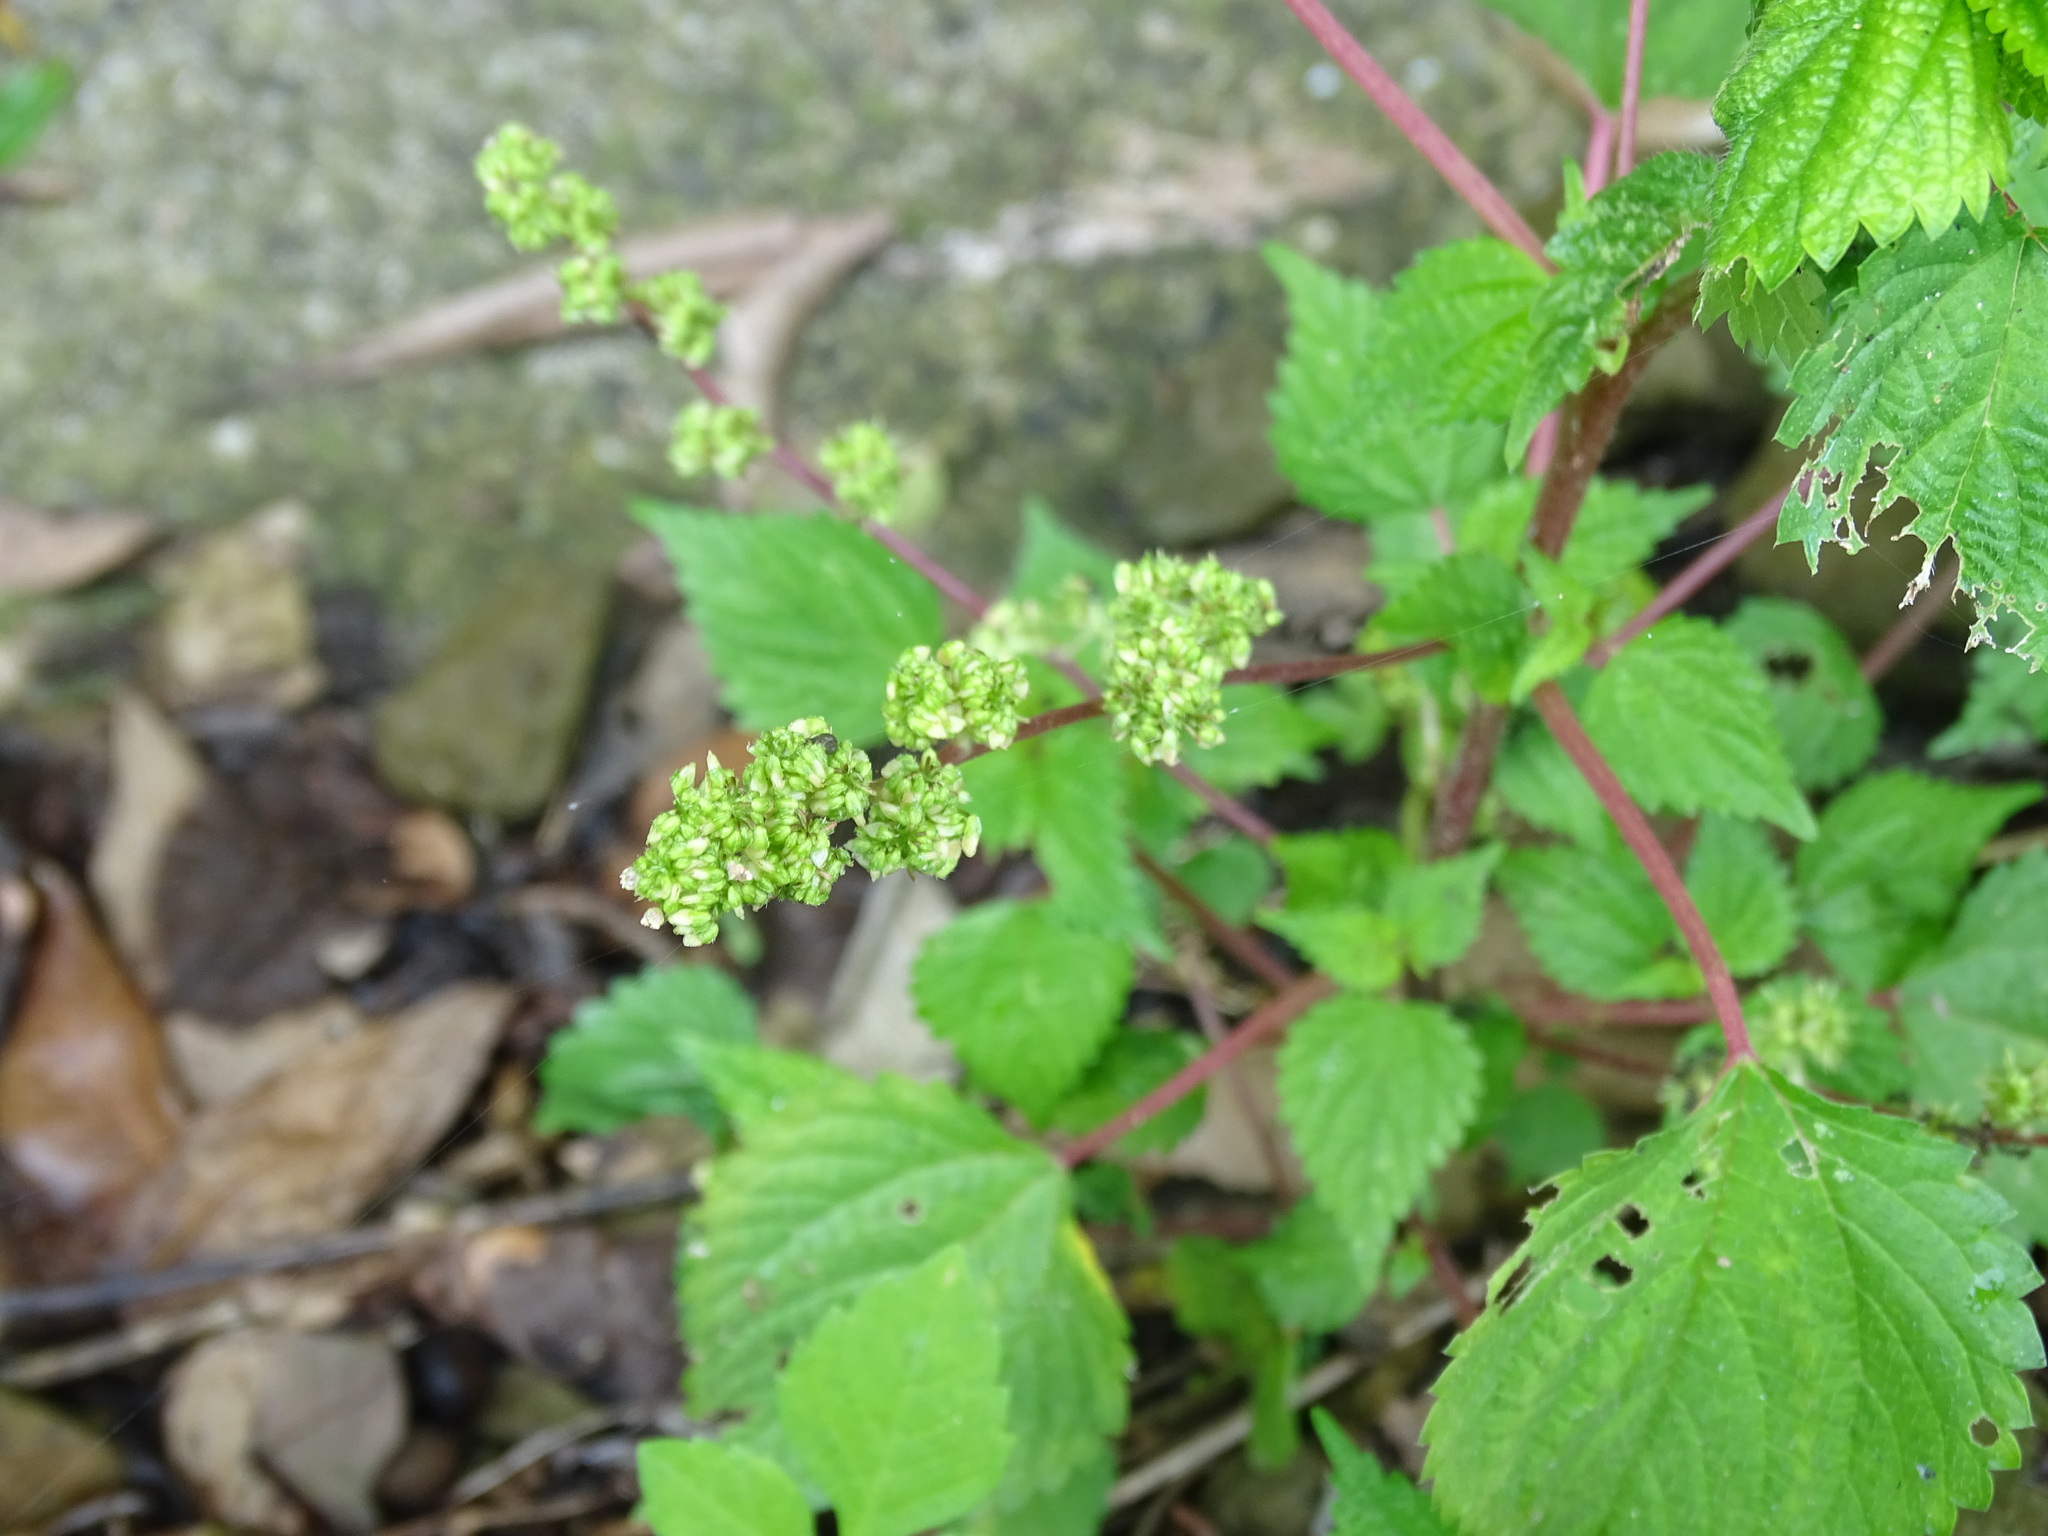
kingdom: Plantae
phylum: Tracheophyta
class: Magnoliopsida
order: Rosales
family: Urticaceae
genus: Laportea
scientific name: Laportea aestuans
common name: West indian woodnettle
